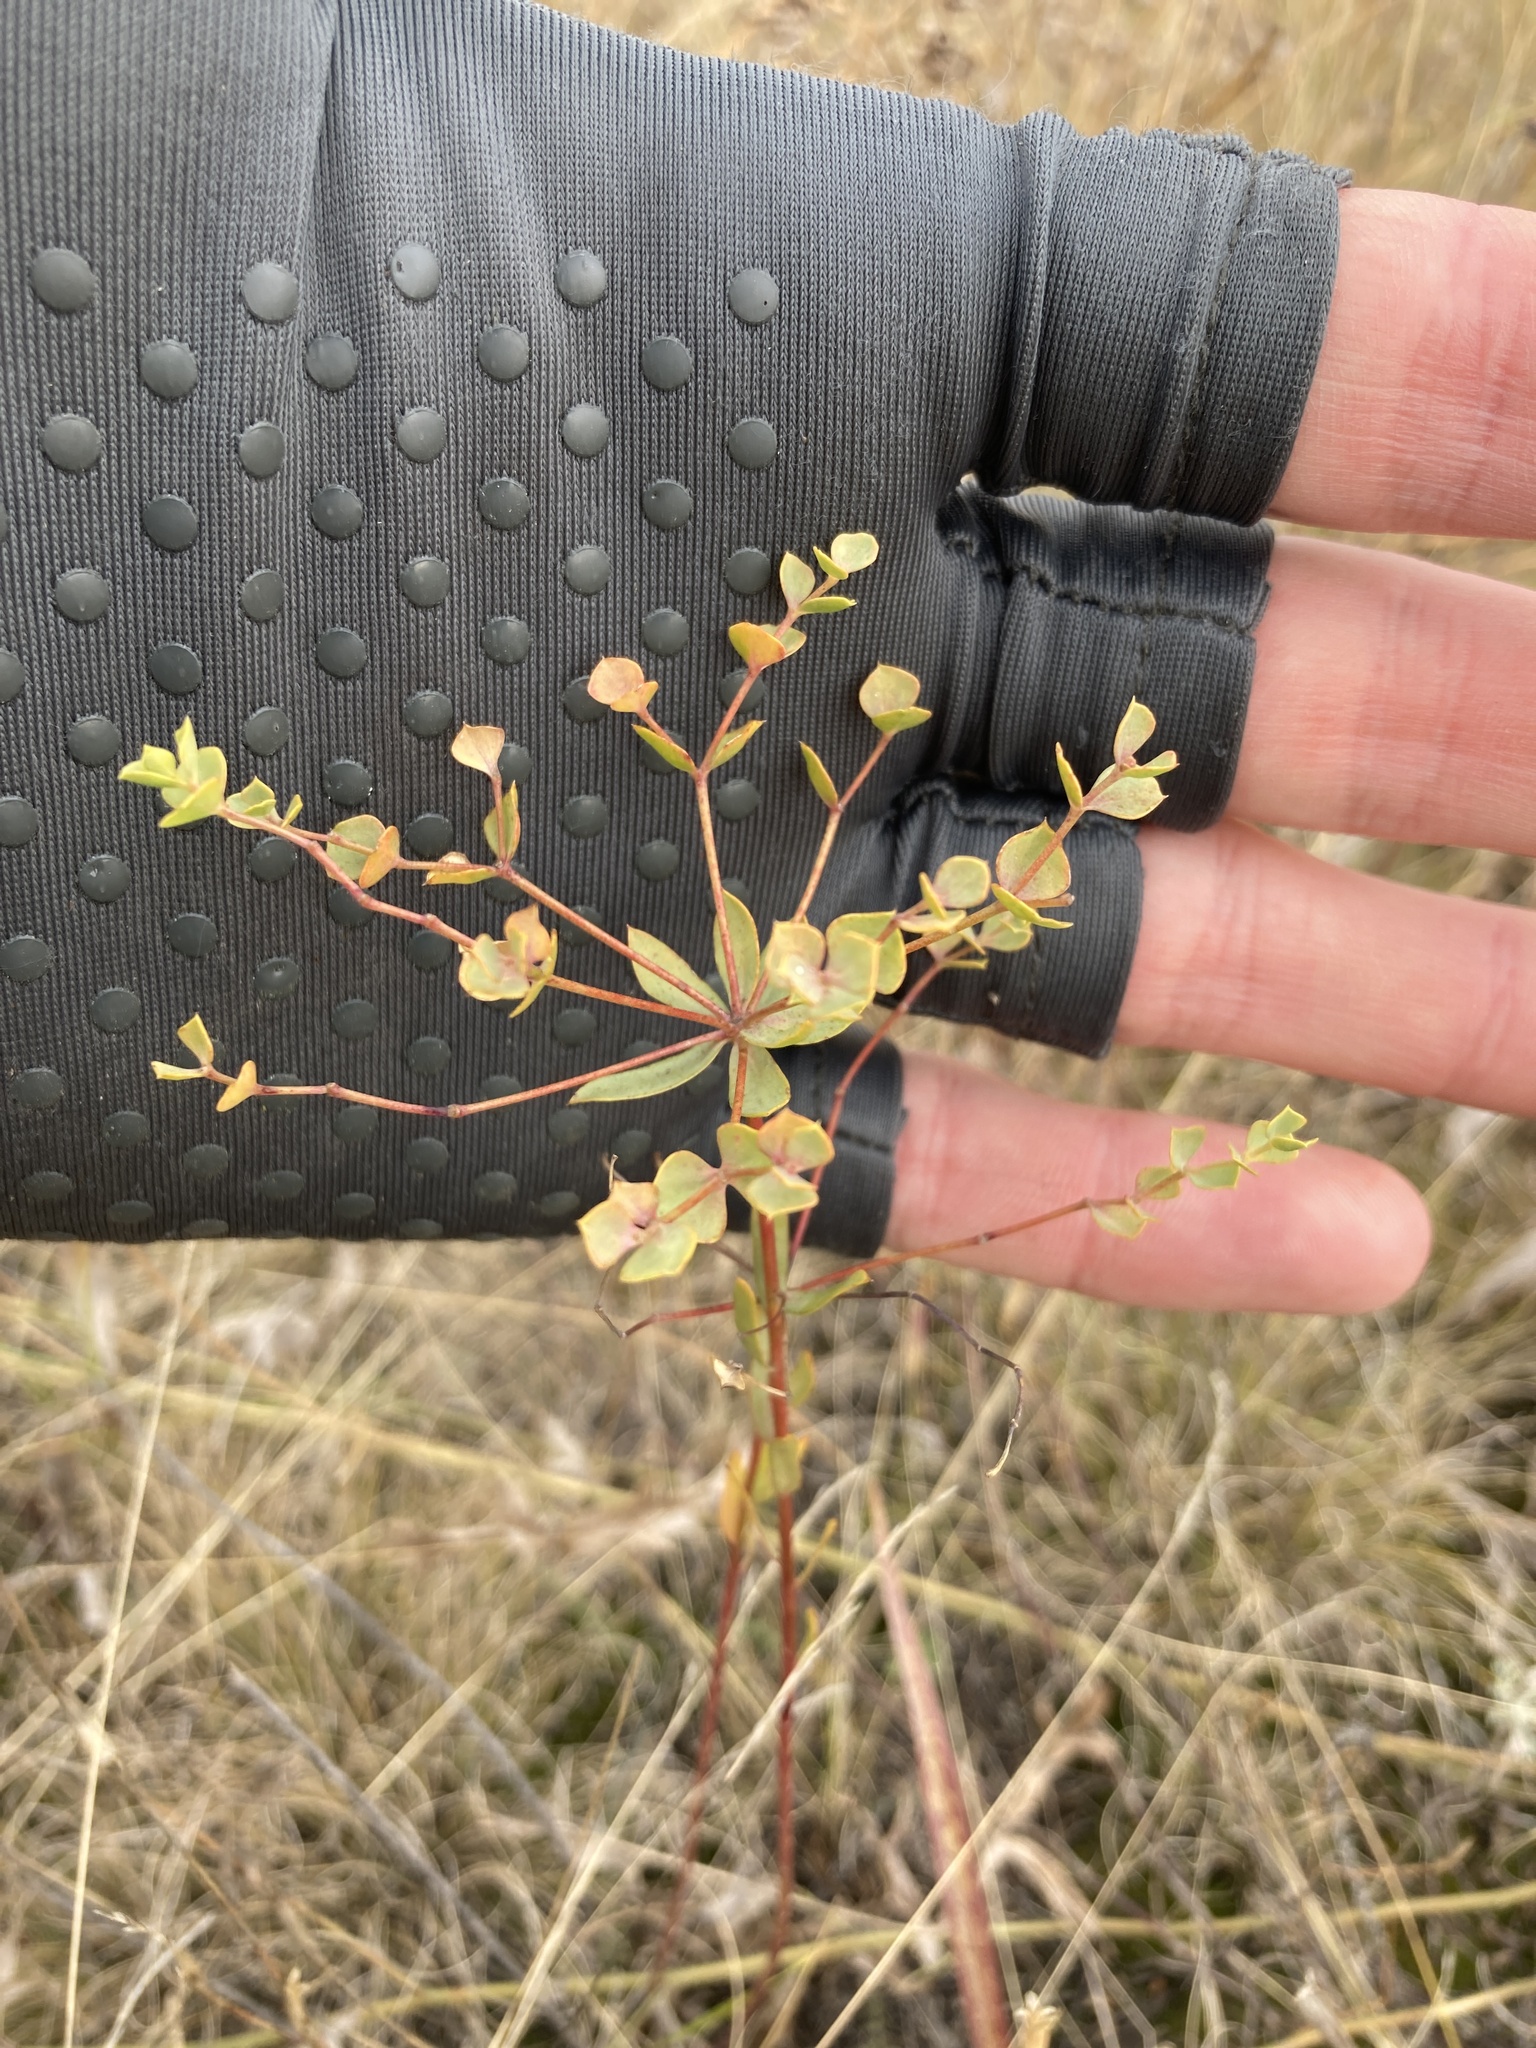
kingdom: Plantae
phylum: Tracheophyta
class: Magnoliopsida
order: Malpighiales
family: Euphorbiaceae
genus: Euphorbia
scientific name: Euphorbia seguieriana
